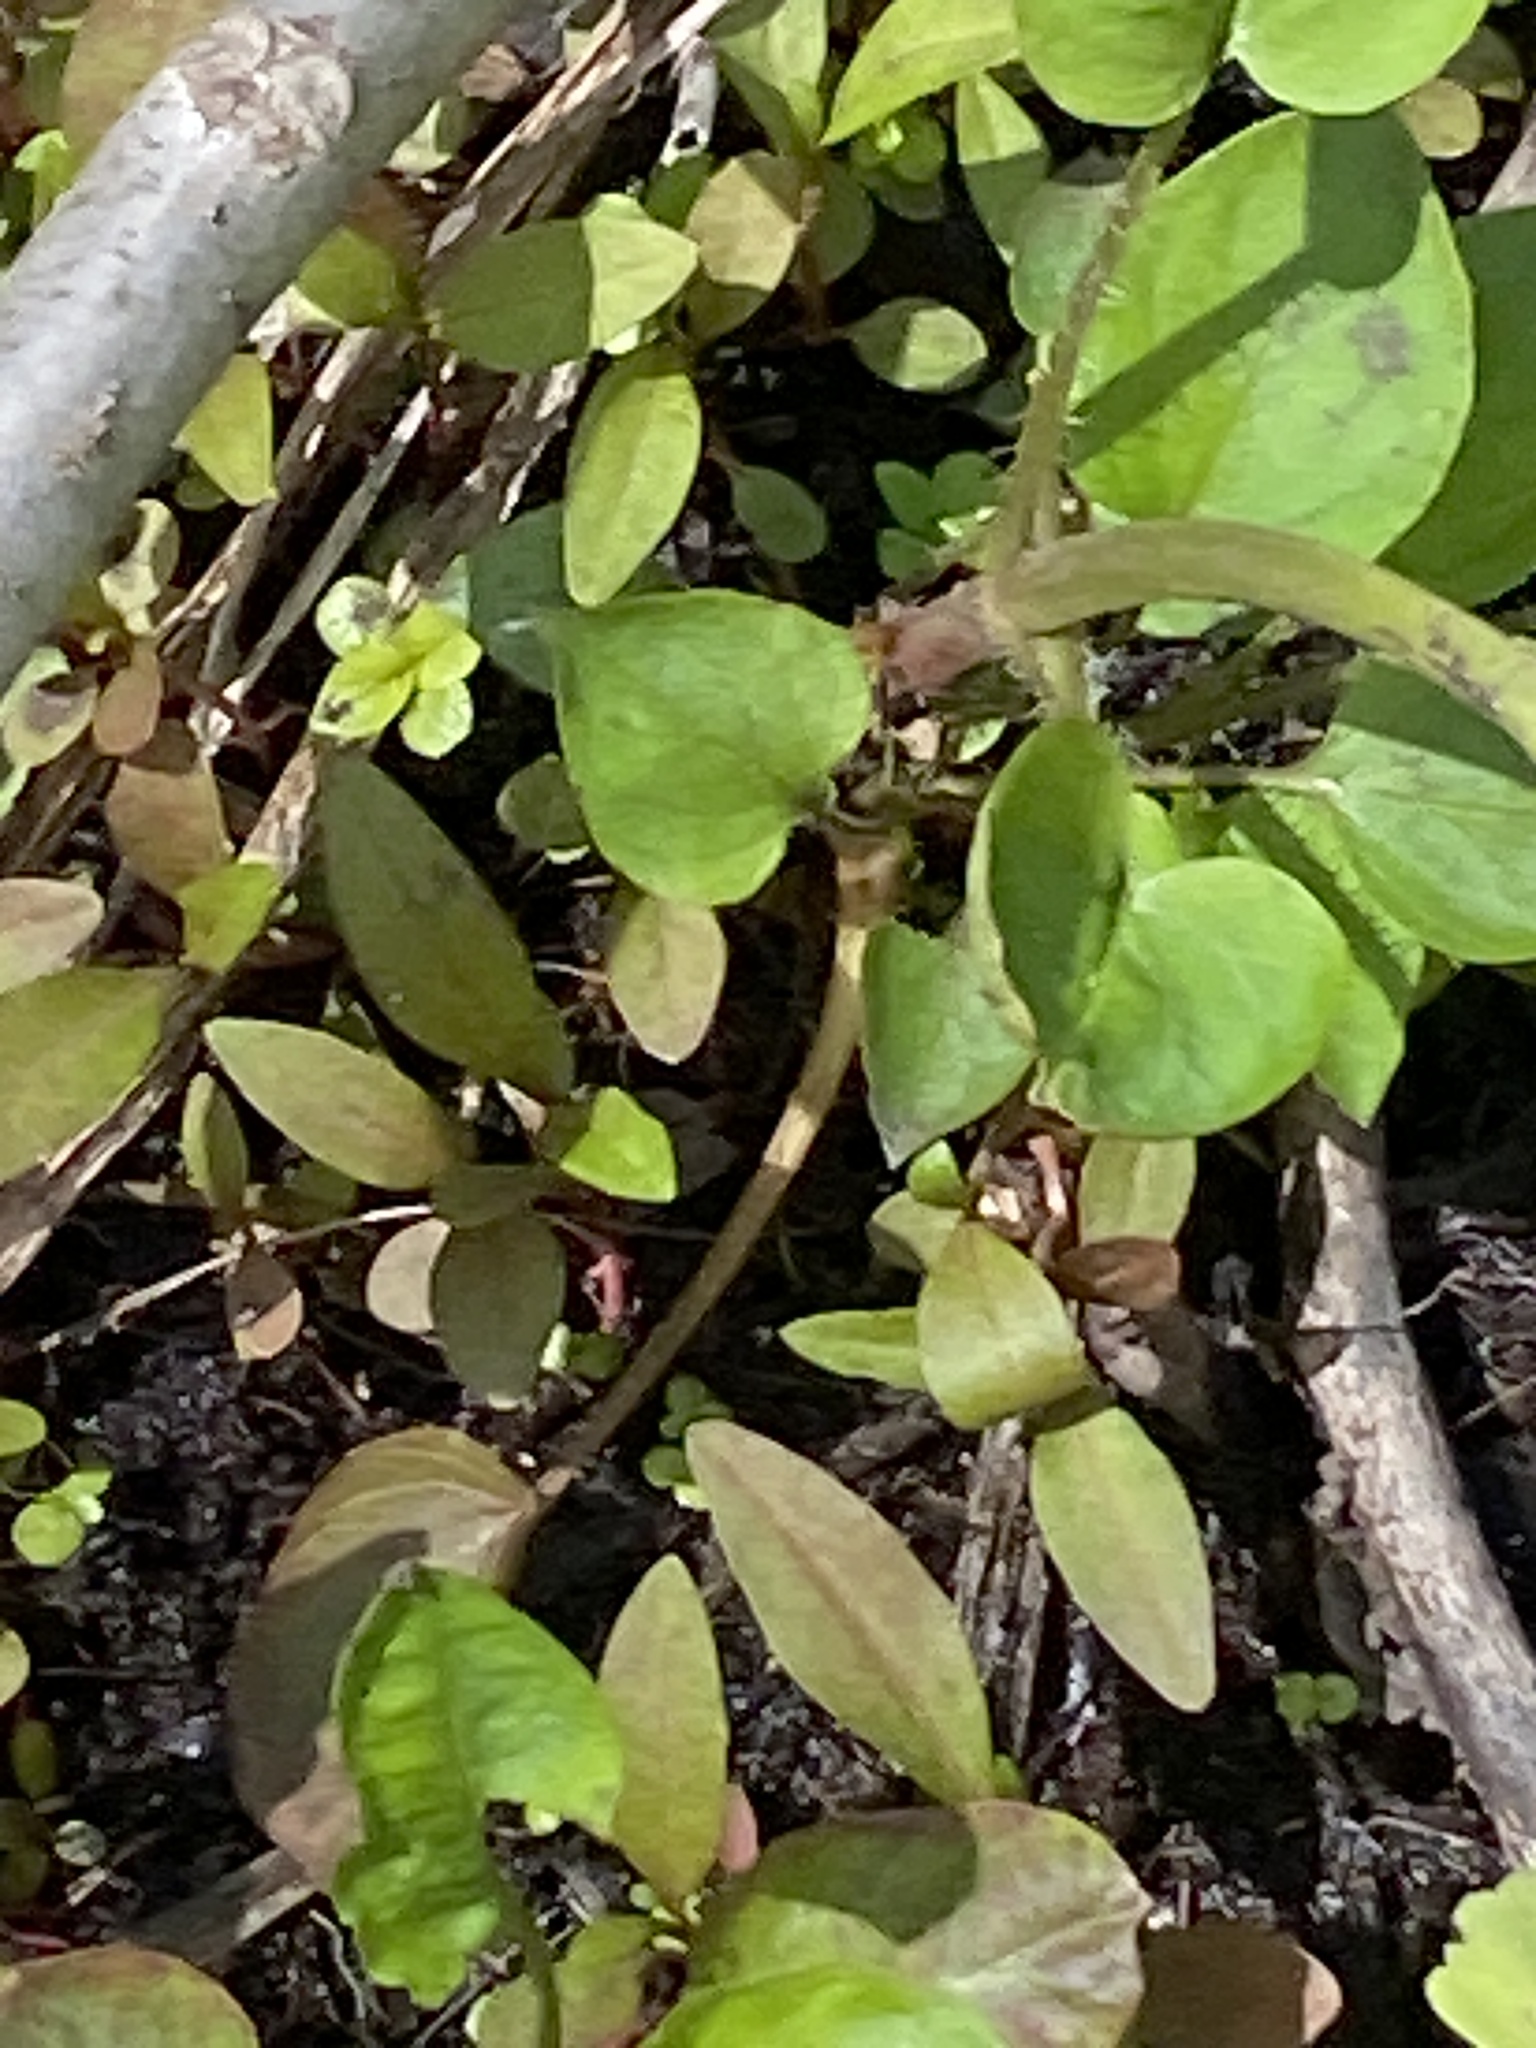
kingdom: Plantae
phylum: Tracheophyta
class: Magnoliopsida
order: Ericales
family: Primulaceae
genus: Lysimachia
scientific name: Lysimachia ciliata
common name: Fringed loosestrife
